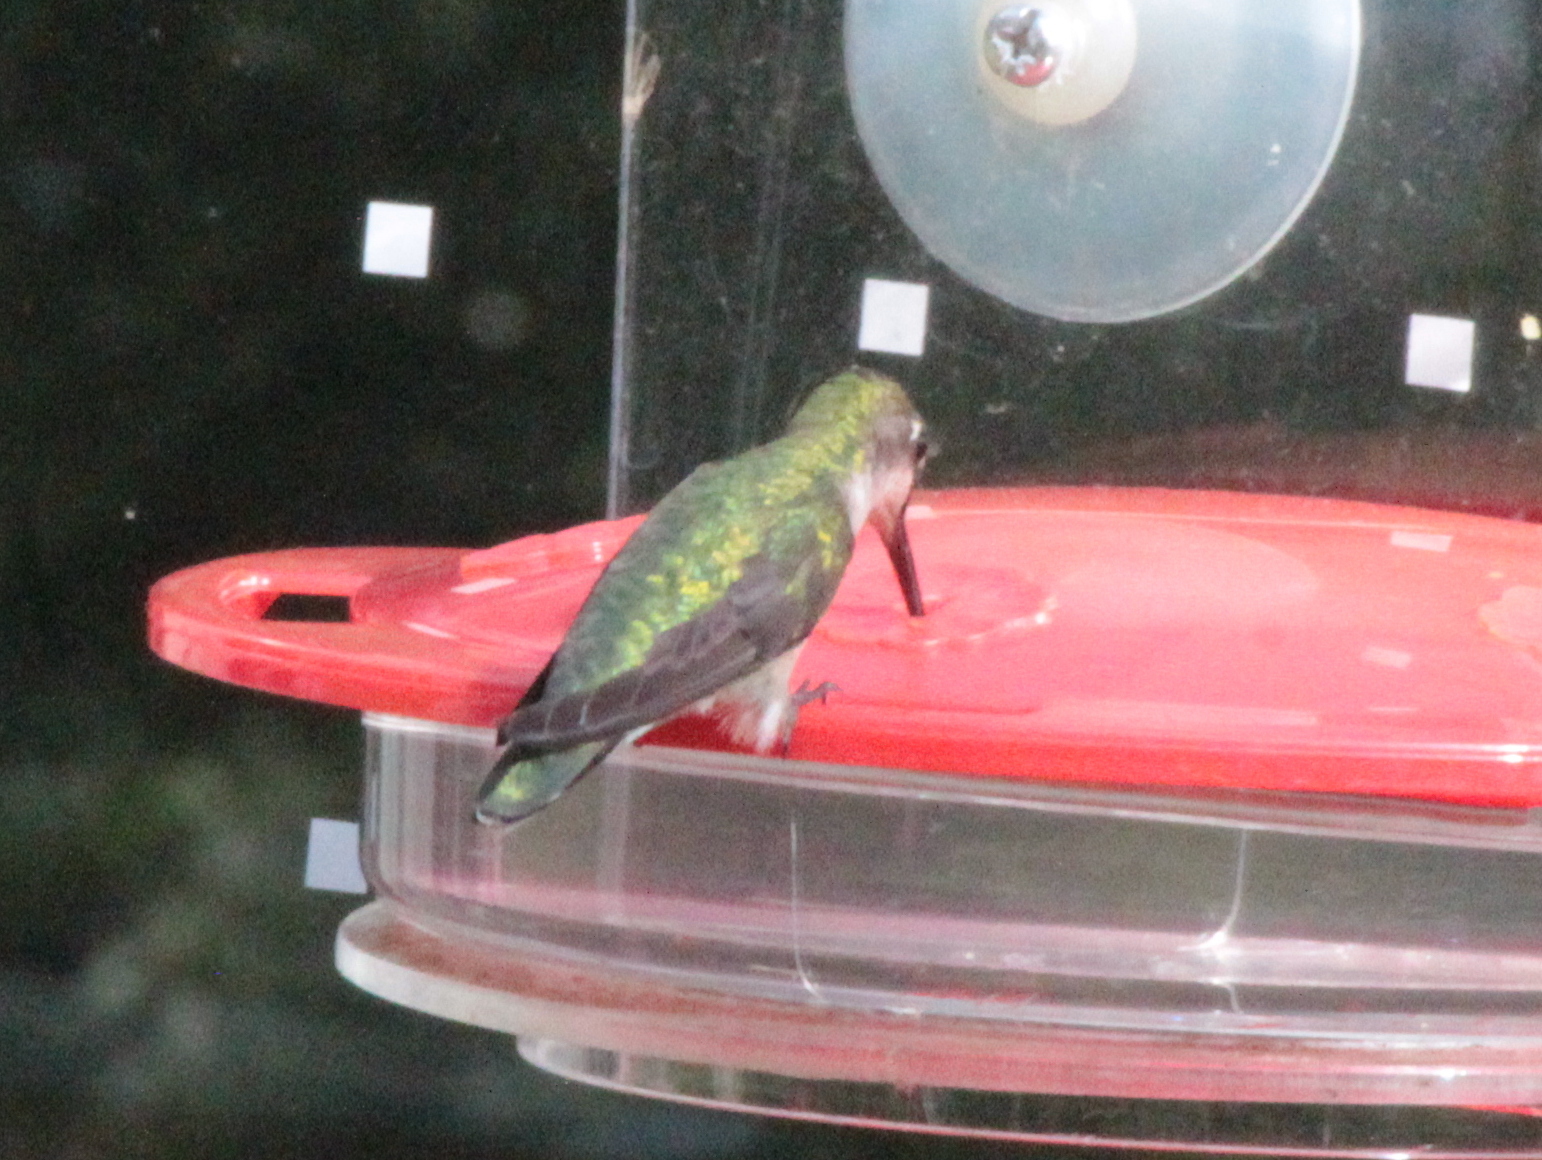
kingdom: Animalia
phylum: Chordata
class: Aves
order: Apodiformes
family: Trochilidae
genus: Archilochus
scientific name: Archilochus colubris
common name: Ruby-throated hummingbird
